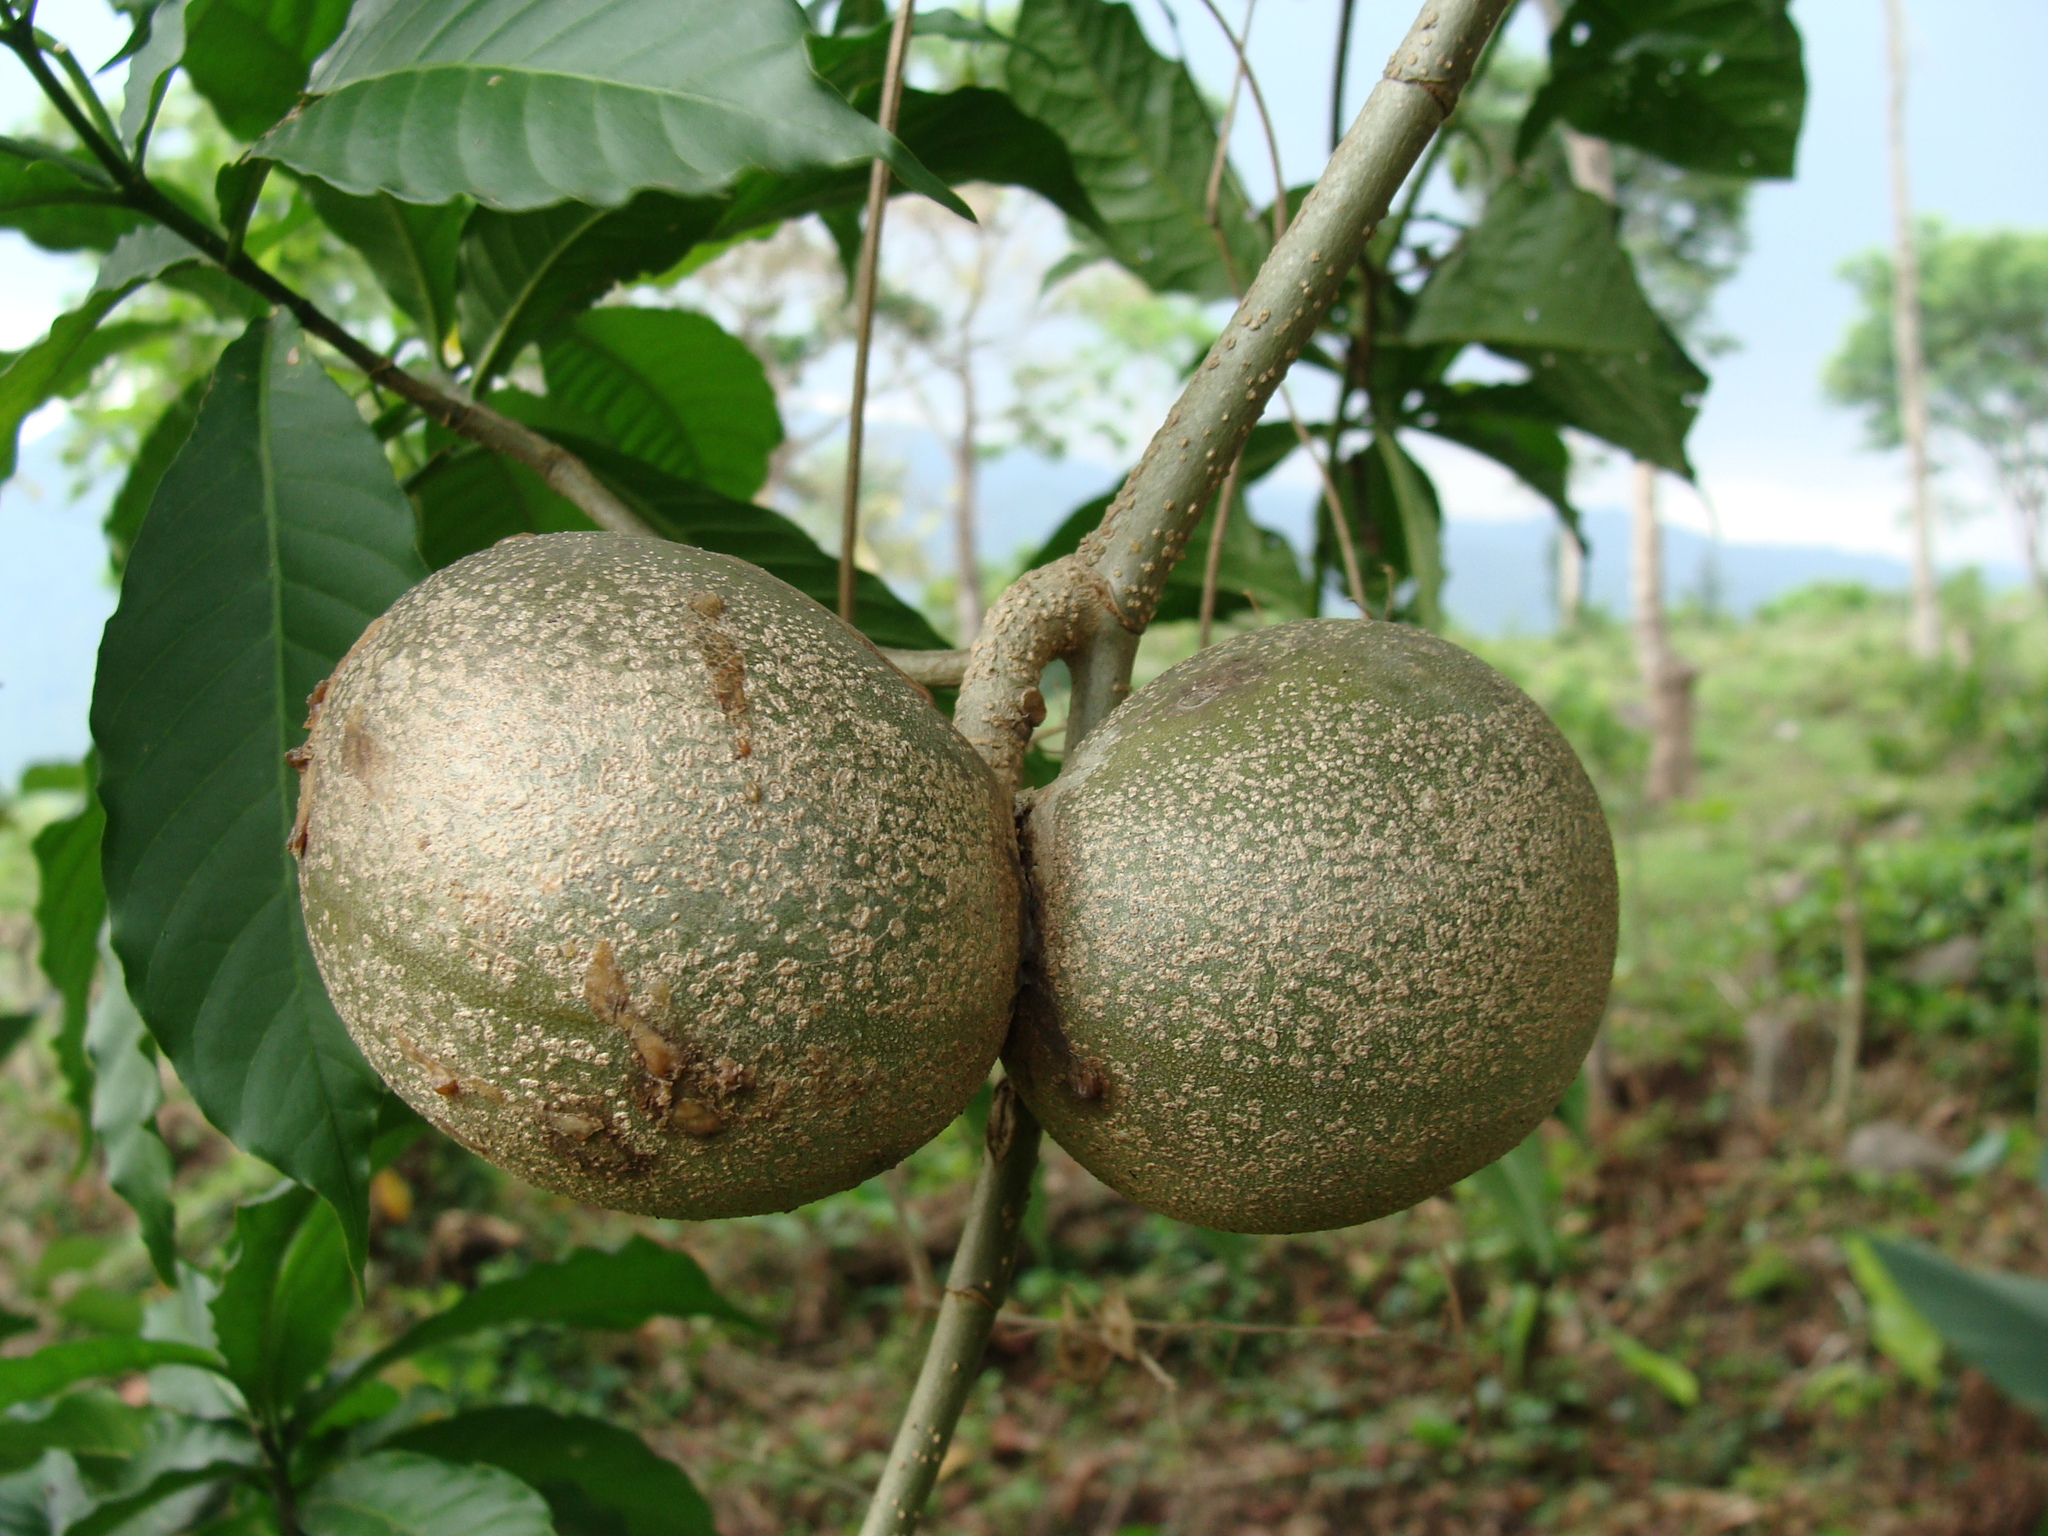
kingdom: Plantae
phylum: Tracheophyta
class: Magnoliopsida
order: Gentianales
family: Apocynaceae
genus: Tabernaemontana
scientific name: Tabernaemontana donnell-smithii
